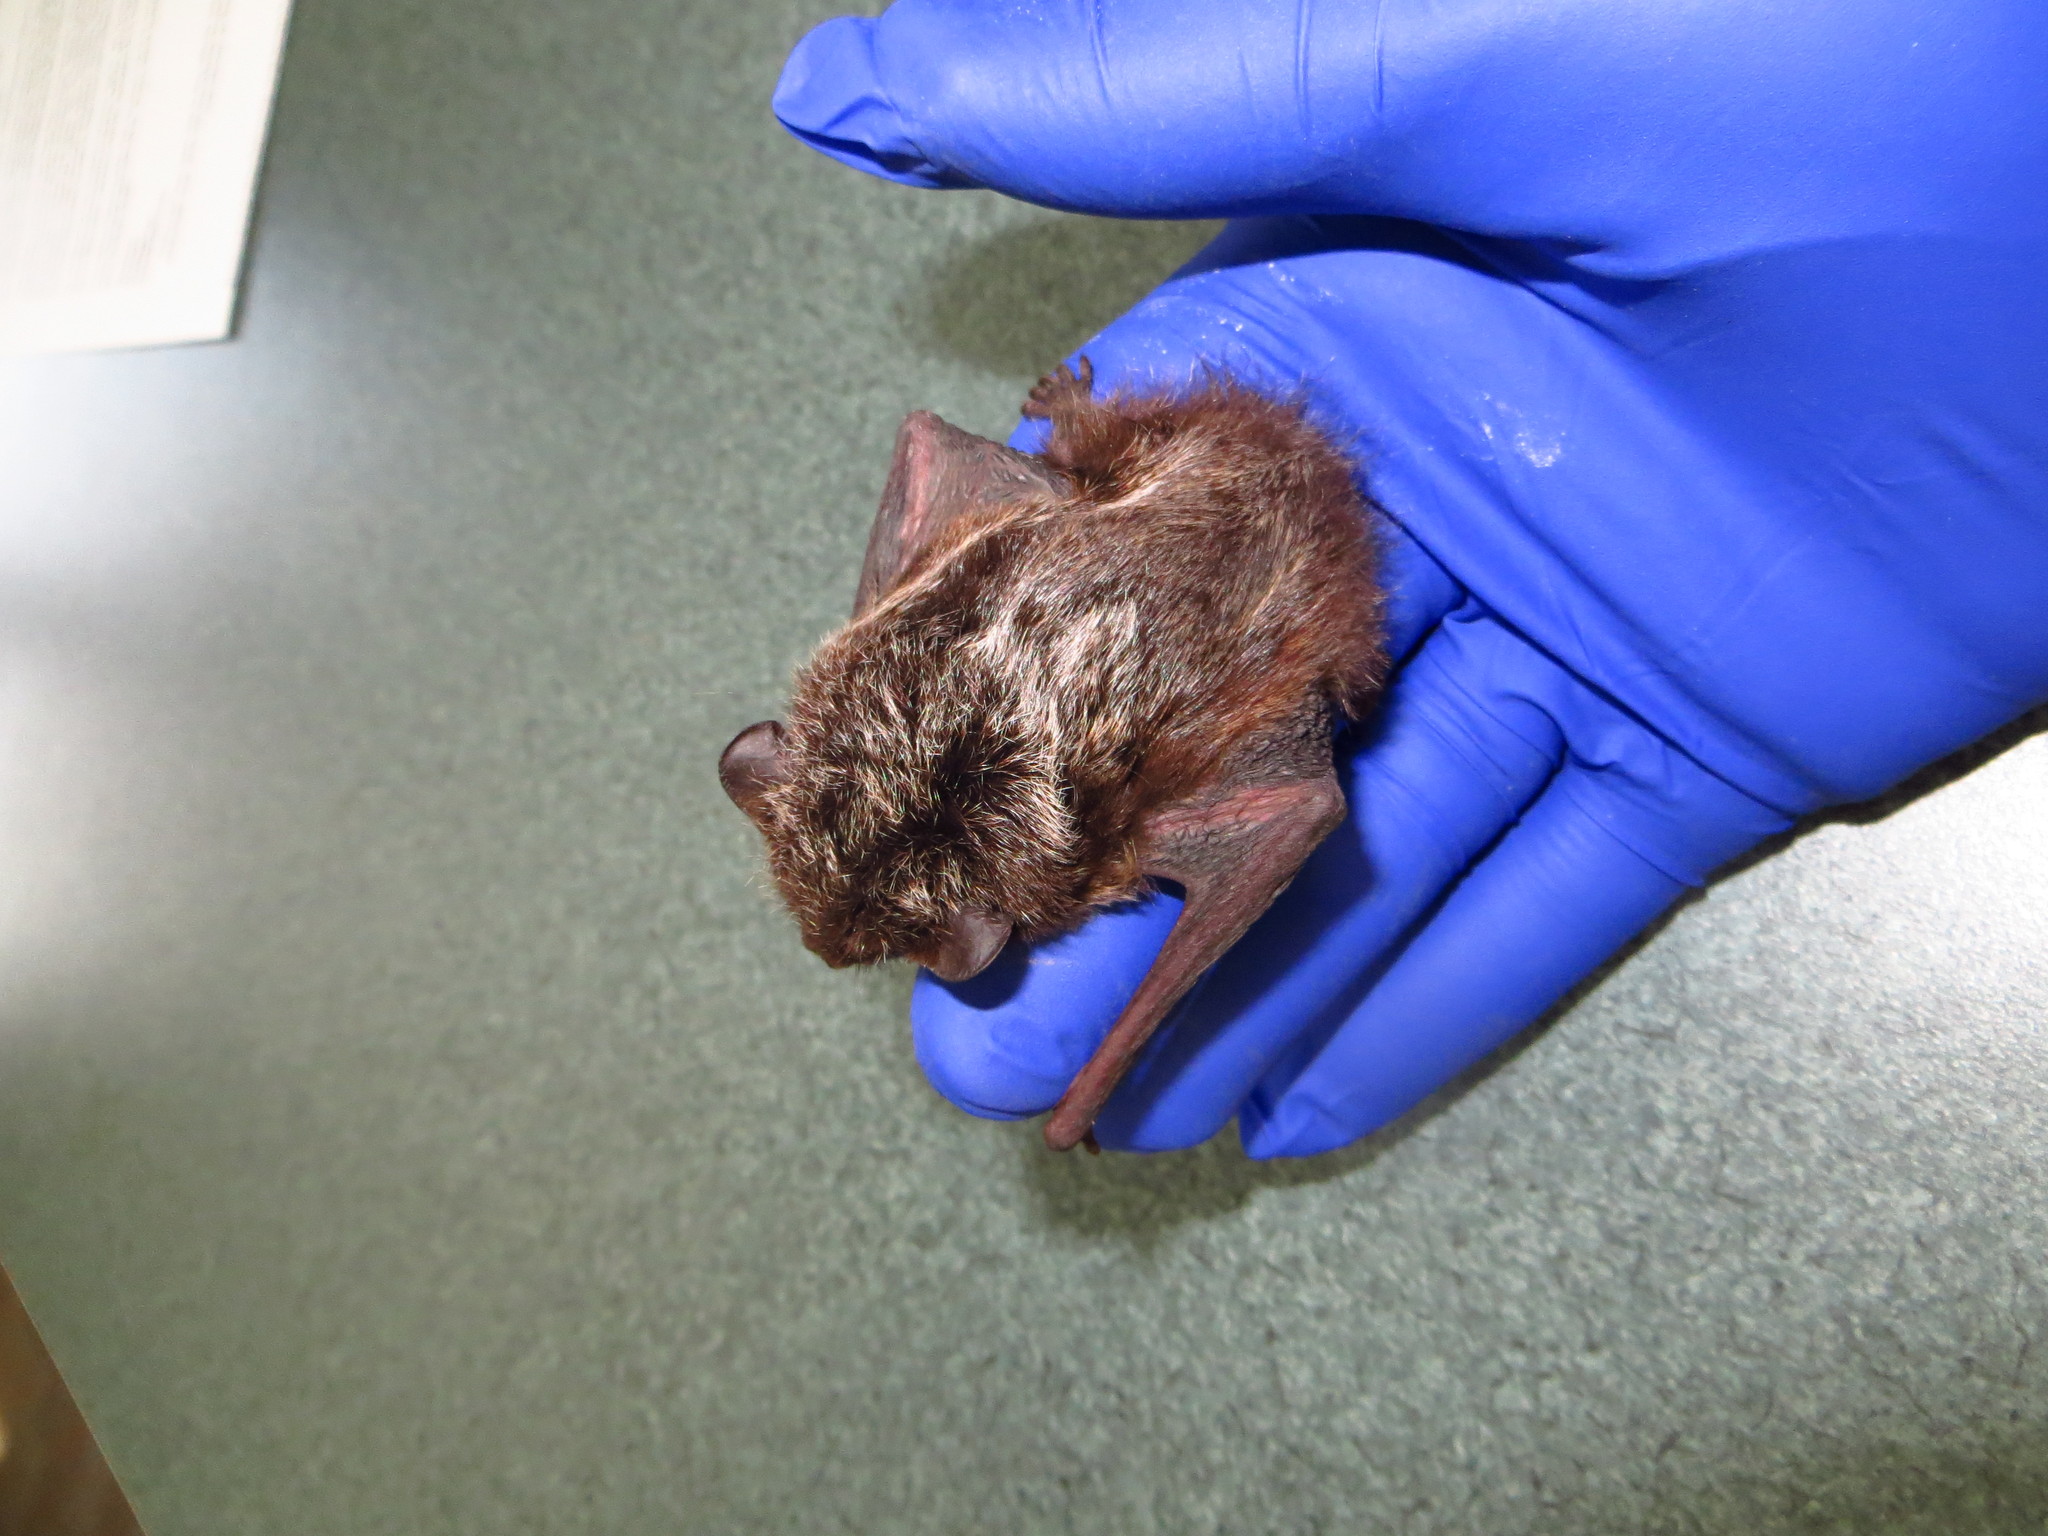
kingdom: Animalia
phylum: Chordata
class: Mammalia
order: Chiroptera
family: Vespertilionidae
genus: Lasionycteris
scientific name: Lasionycteris noctivagans
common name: Silver-haired bat
